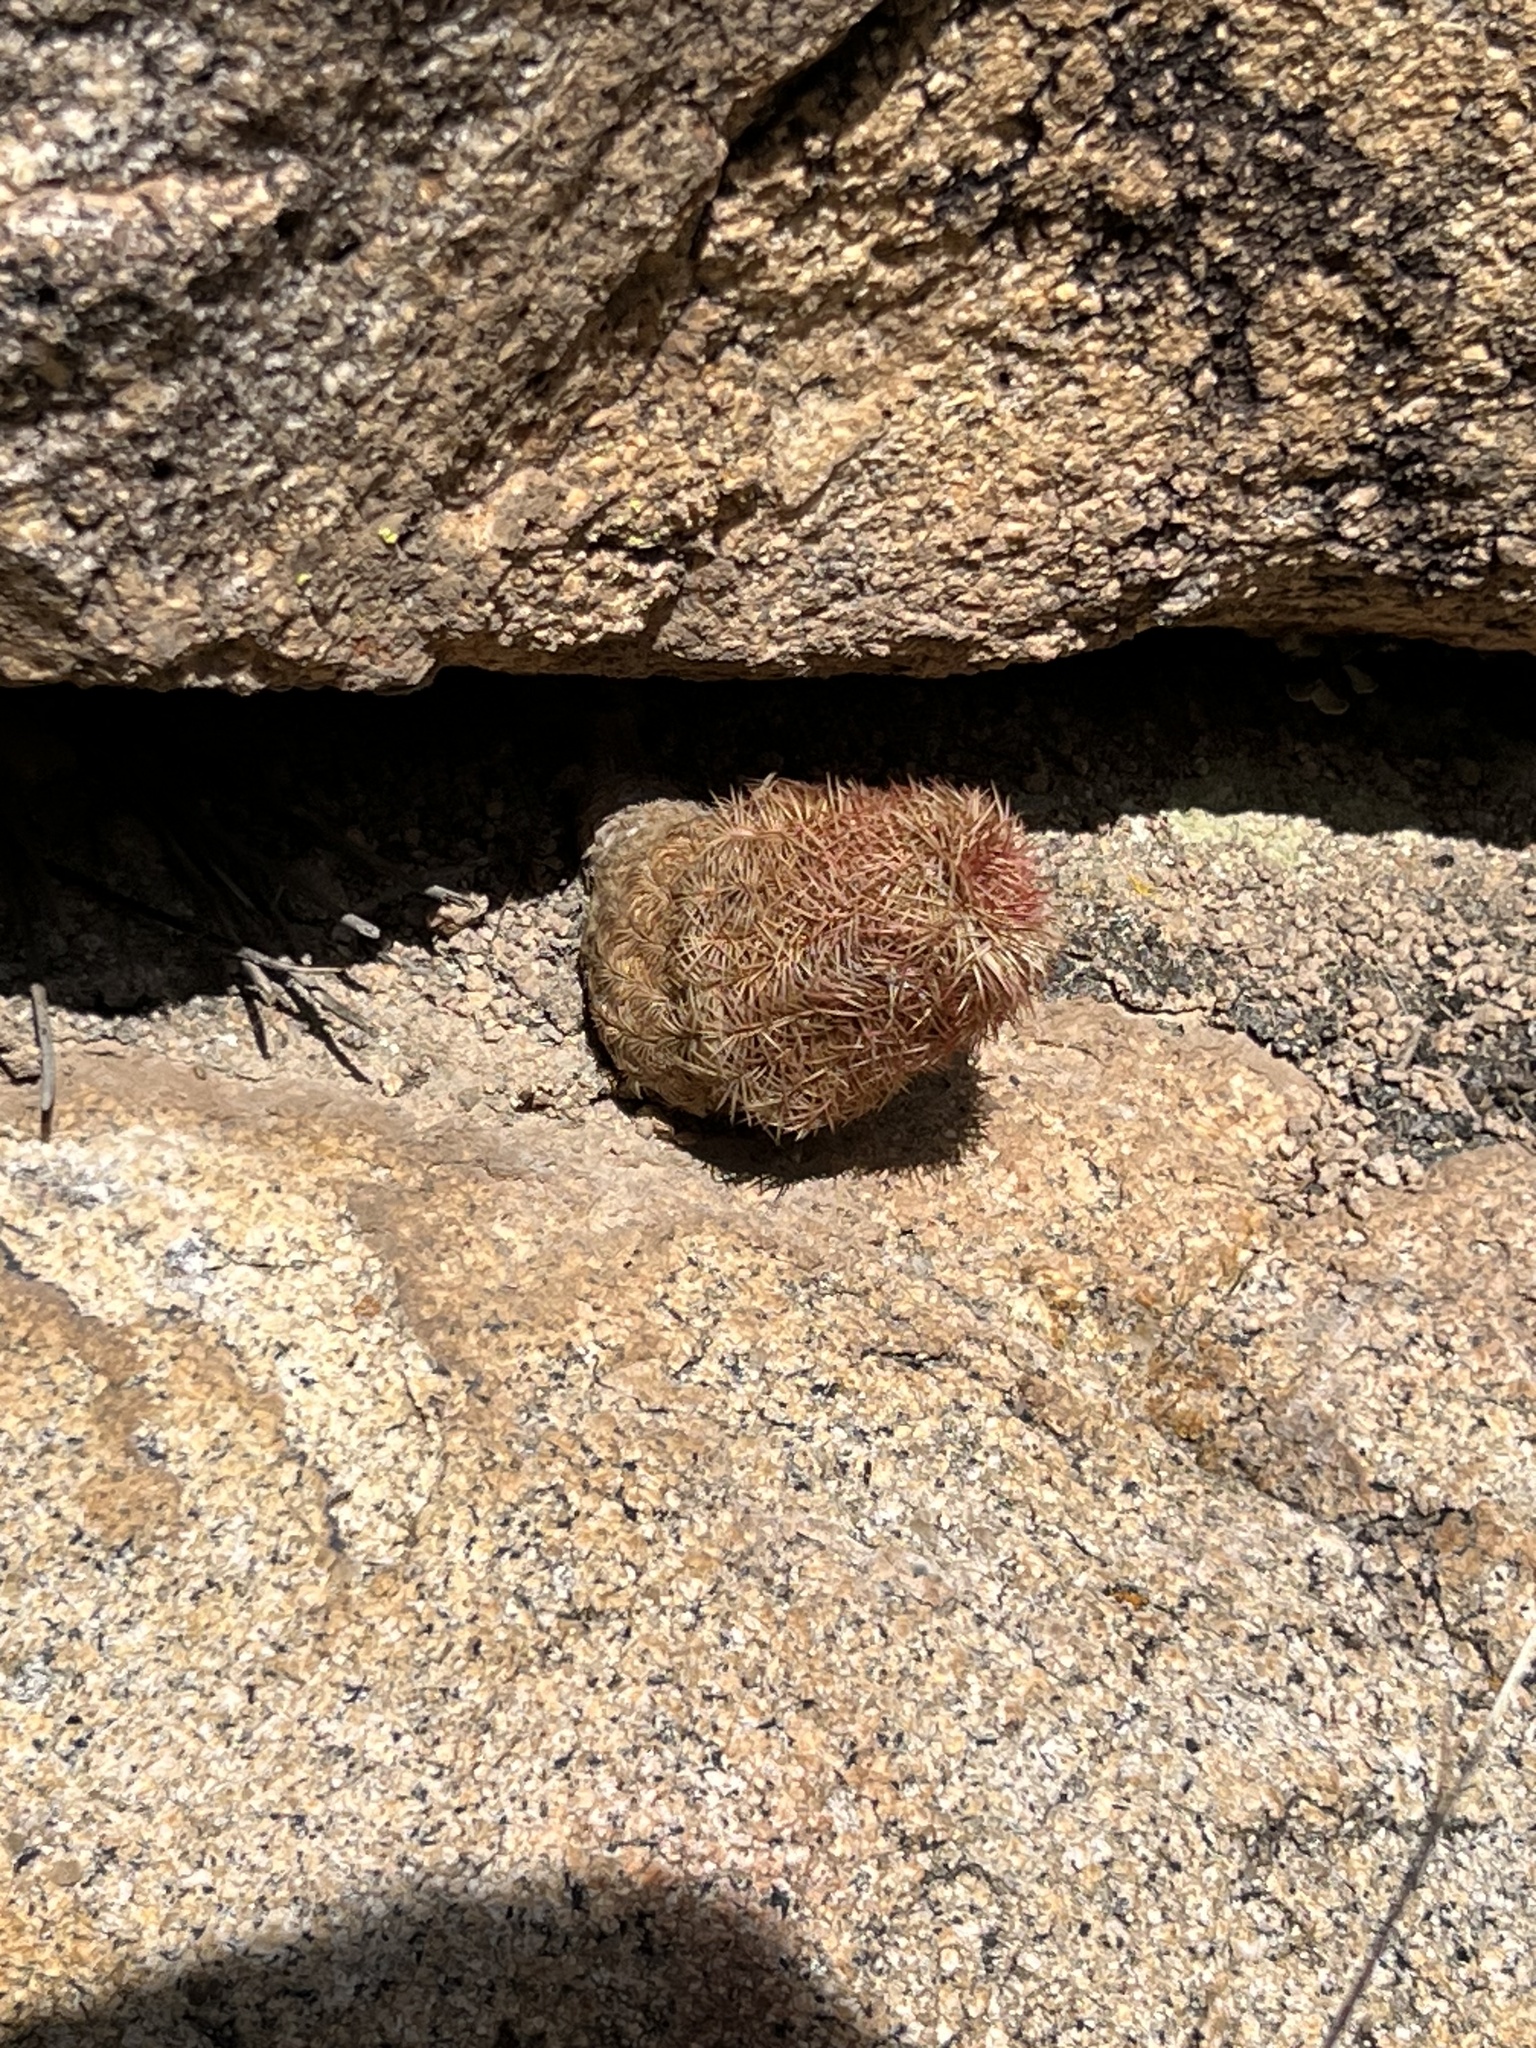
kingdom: Plantae
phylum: Tracheophyta
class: Magnoliopsida
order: Caryophyllales
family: Cactaceae
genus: Echinocereus
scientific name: Echinocereus rigidissimus
